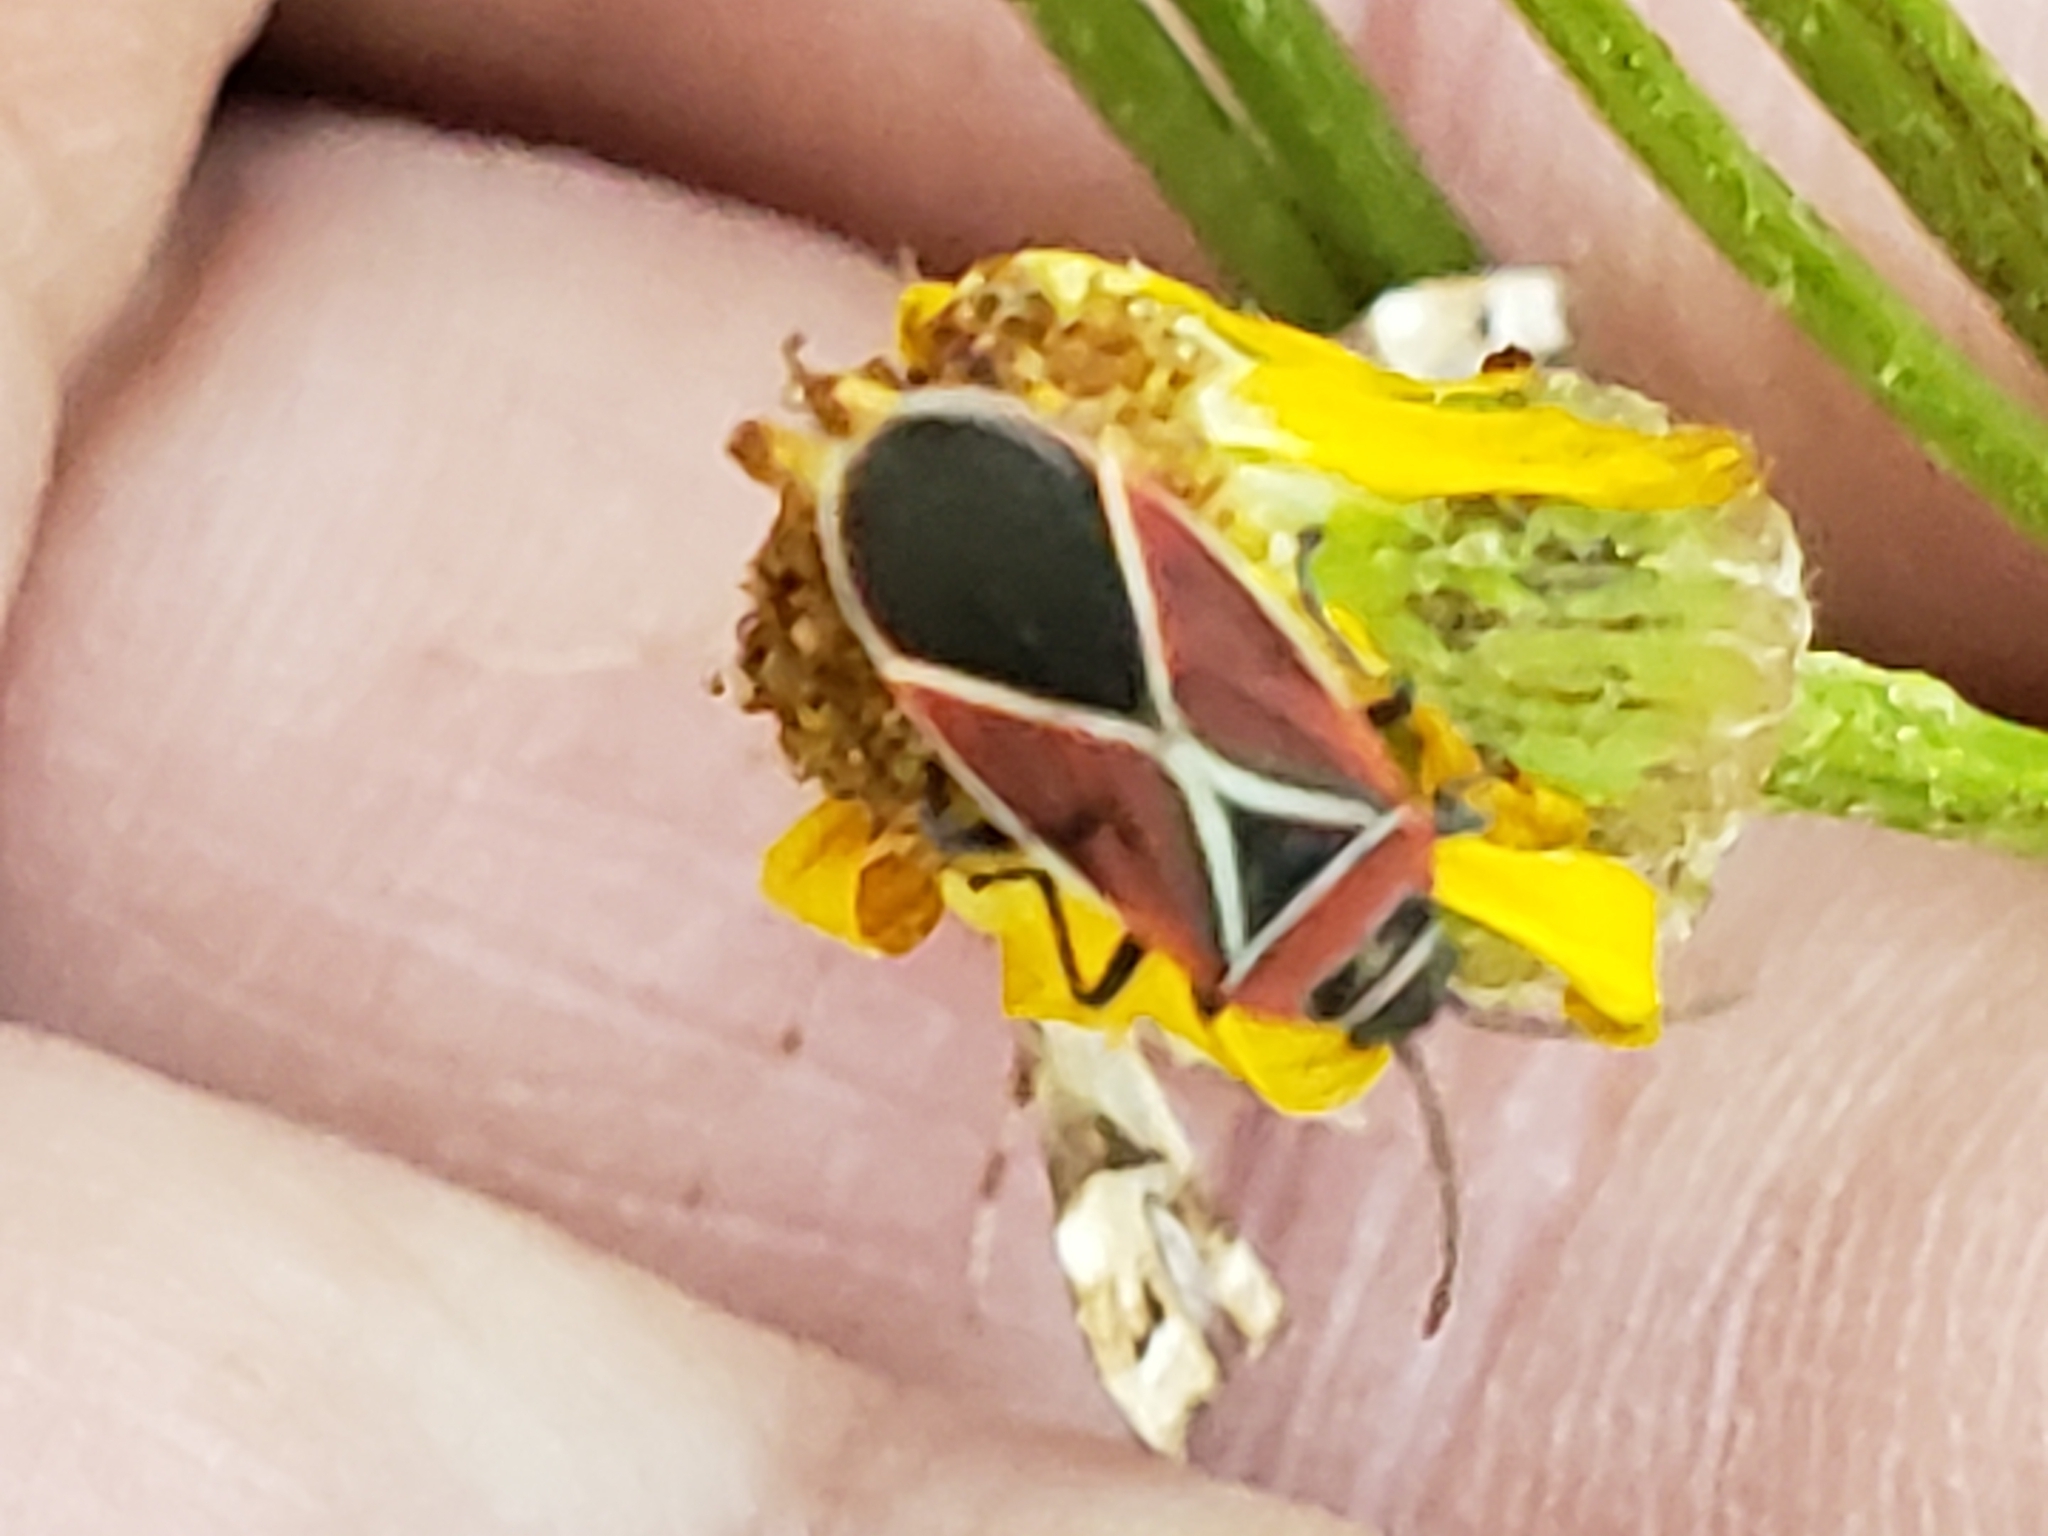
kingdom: Animalia
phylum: Arthropoda
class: Insecta
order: Hemiptera
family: Lygaeidae
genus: Neacoryphus
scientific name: Neacoryphus bicrucis
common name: Lygaeid bug
